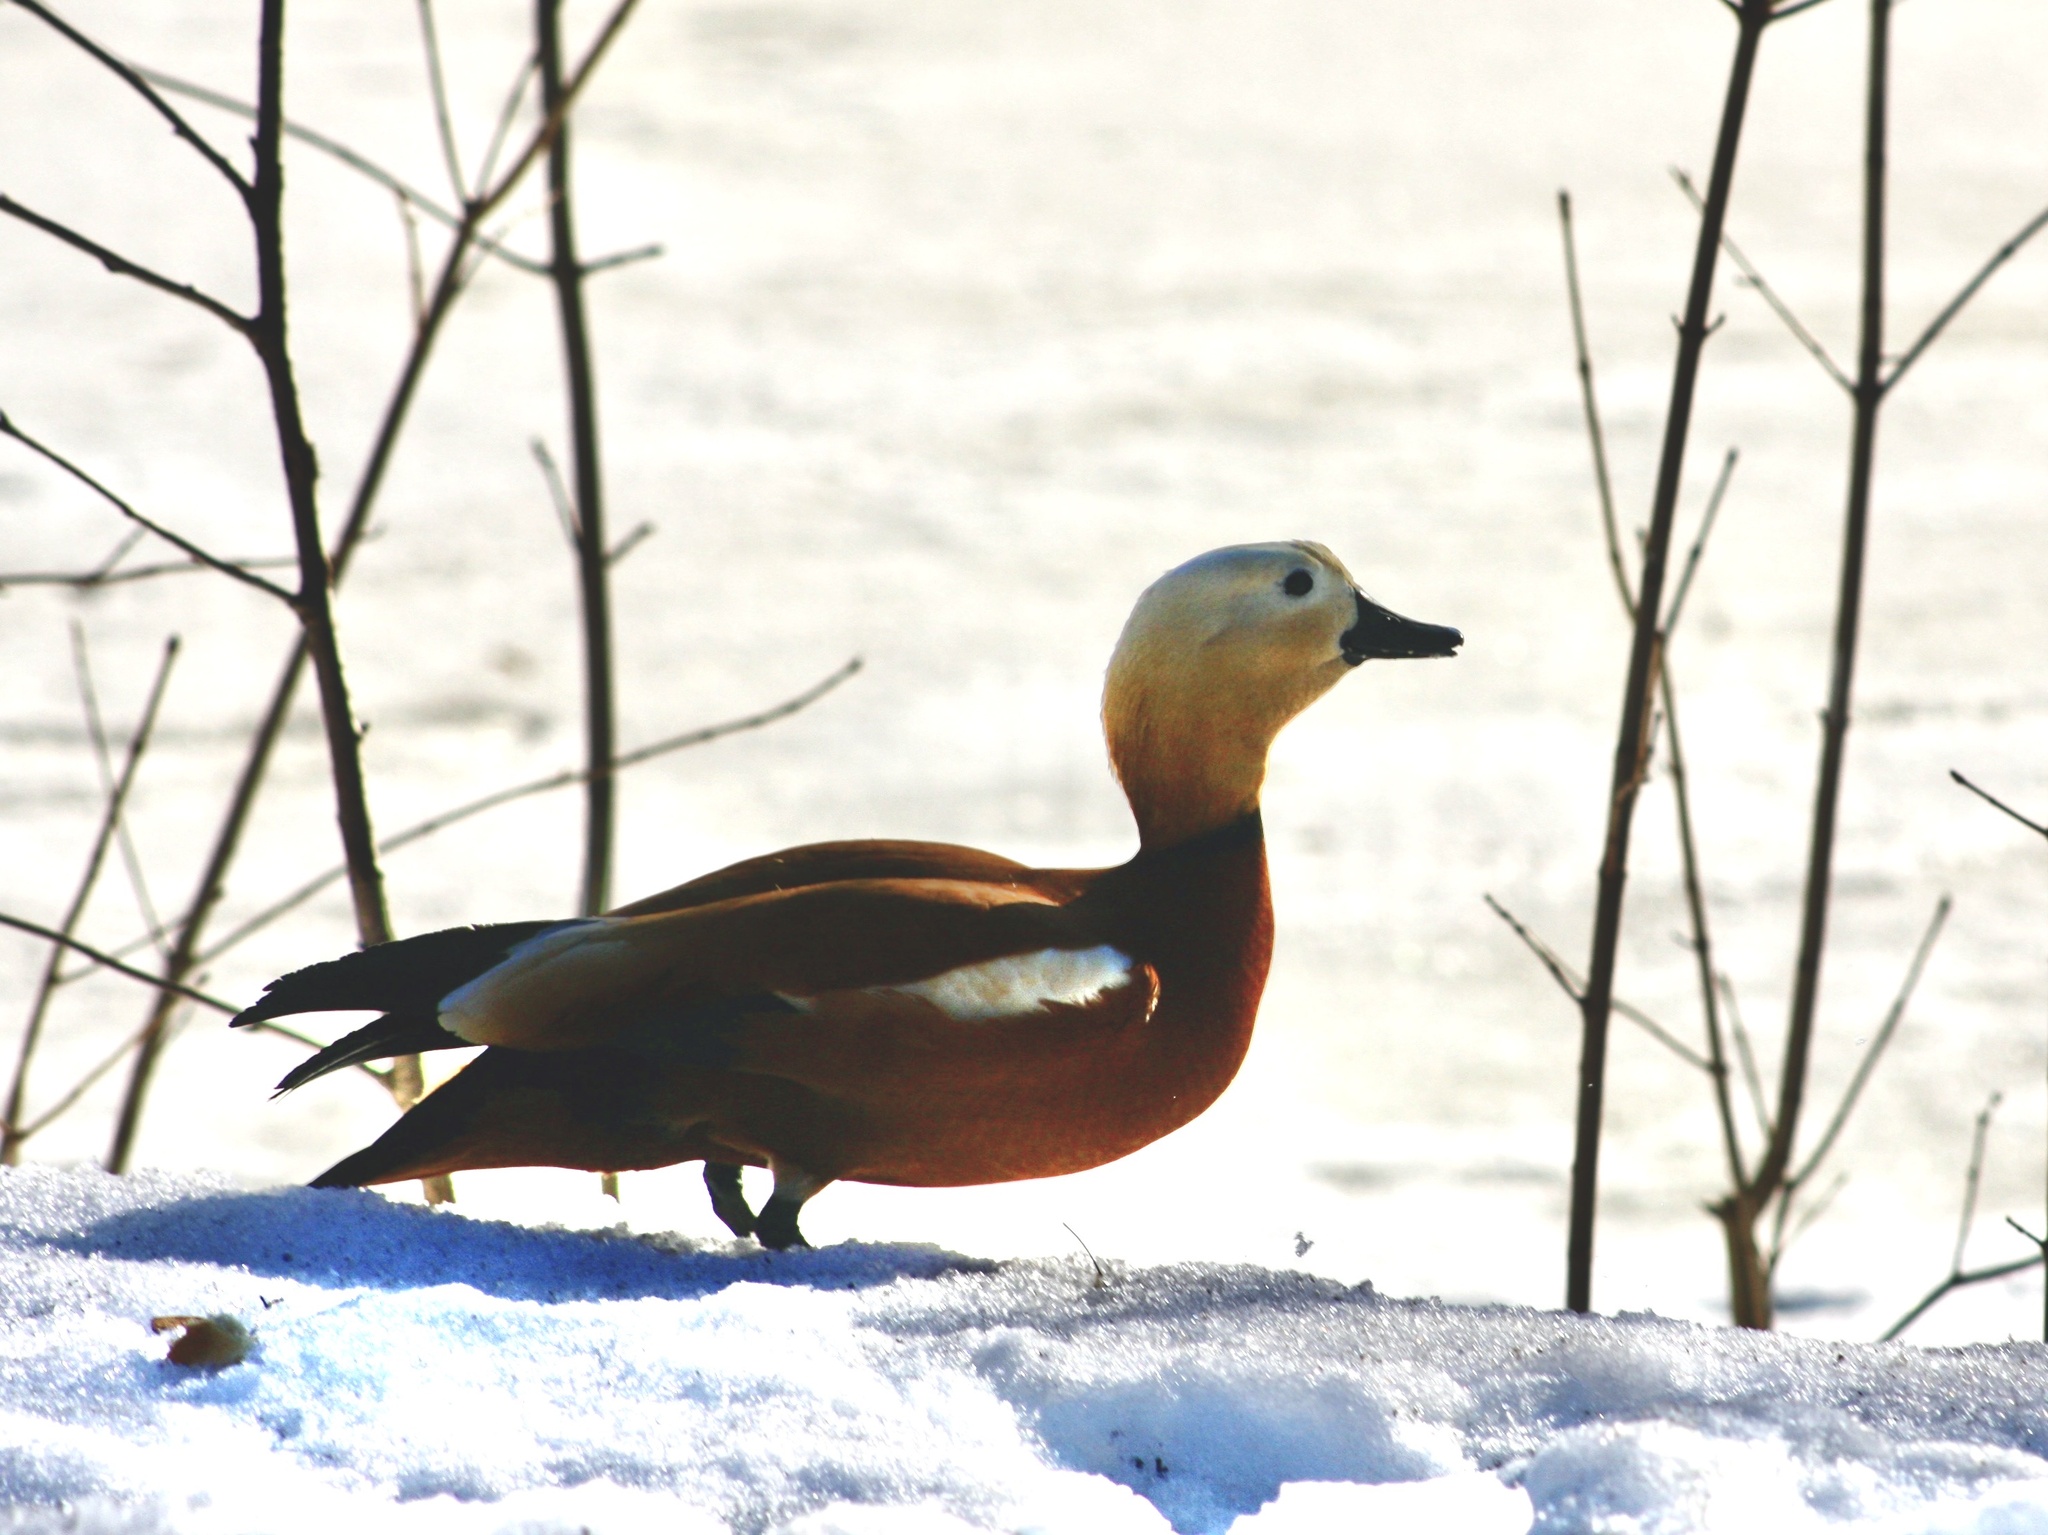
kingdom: Animalia
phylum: Chordata
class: Aves
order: Anseriformes
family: Anatidae
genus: Tadorna
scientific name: Tadorna ferruginea
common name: Ruddy shelduck
